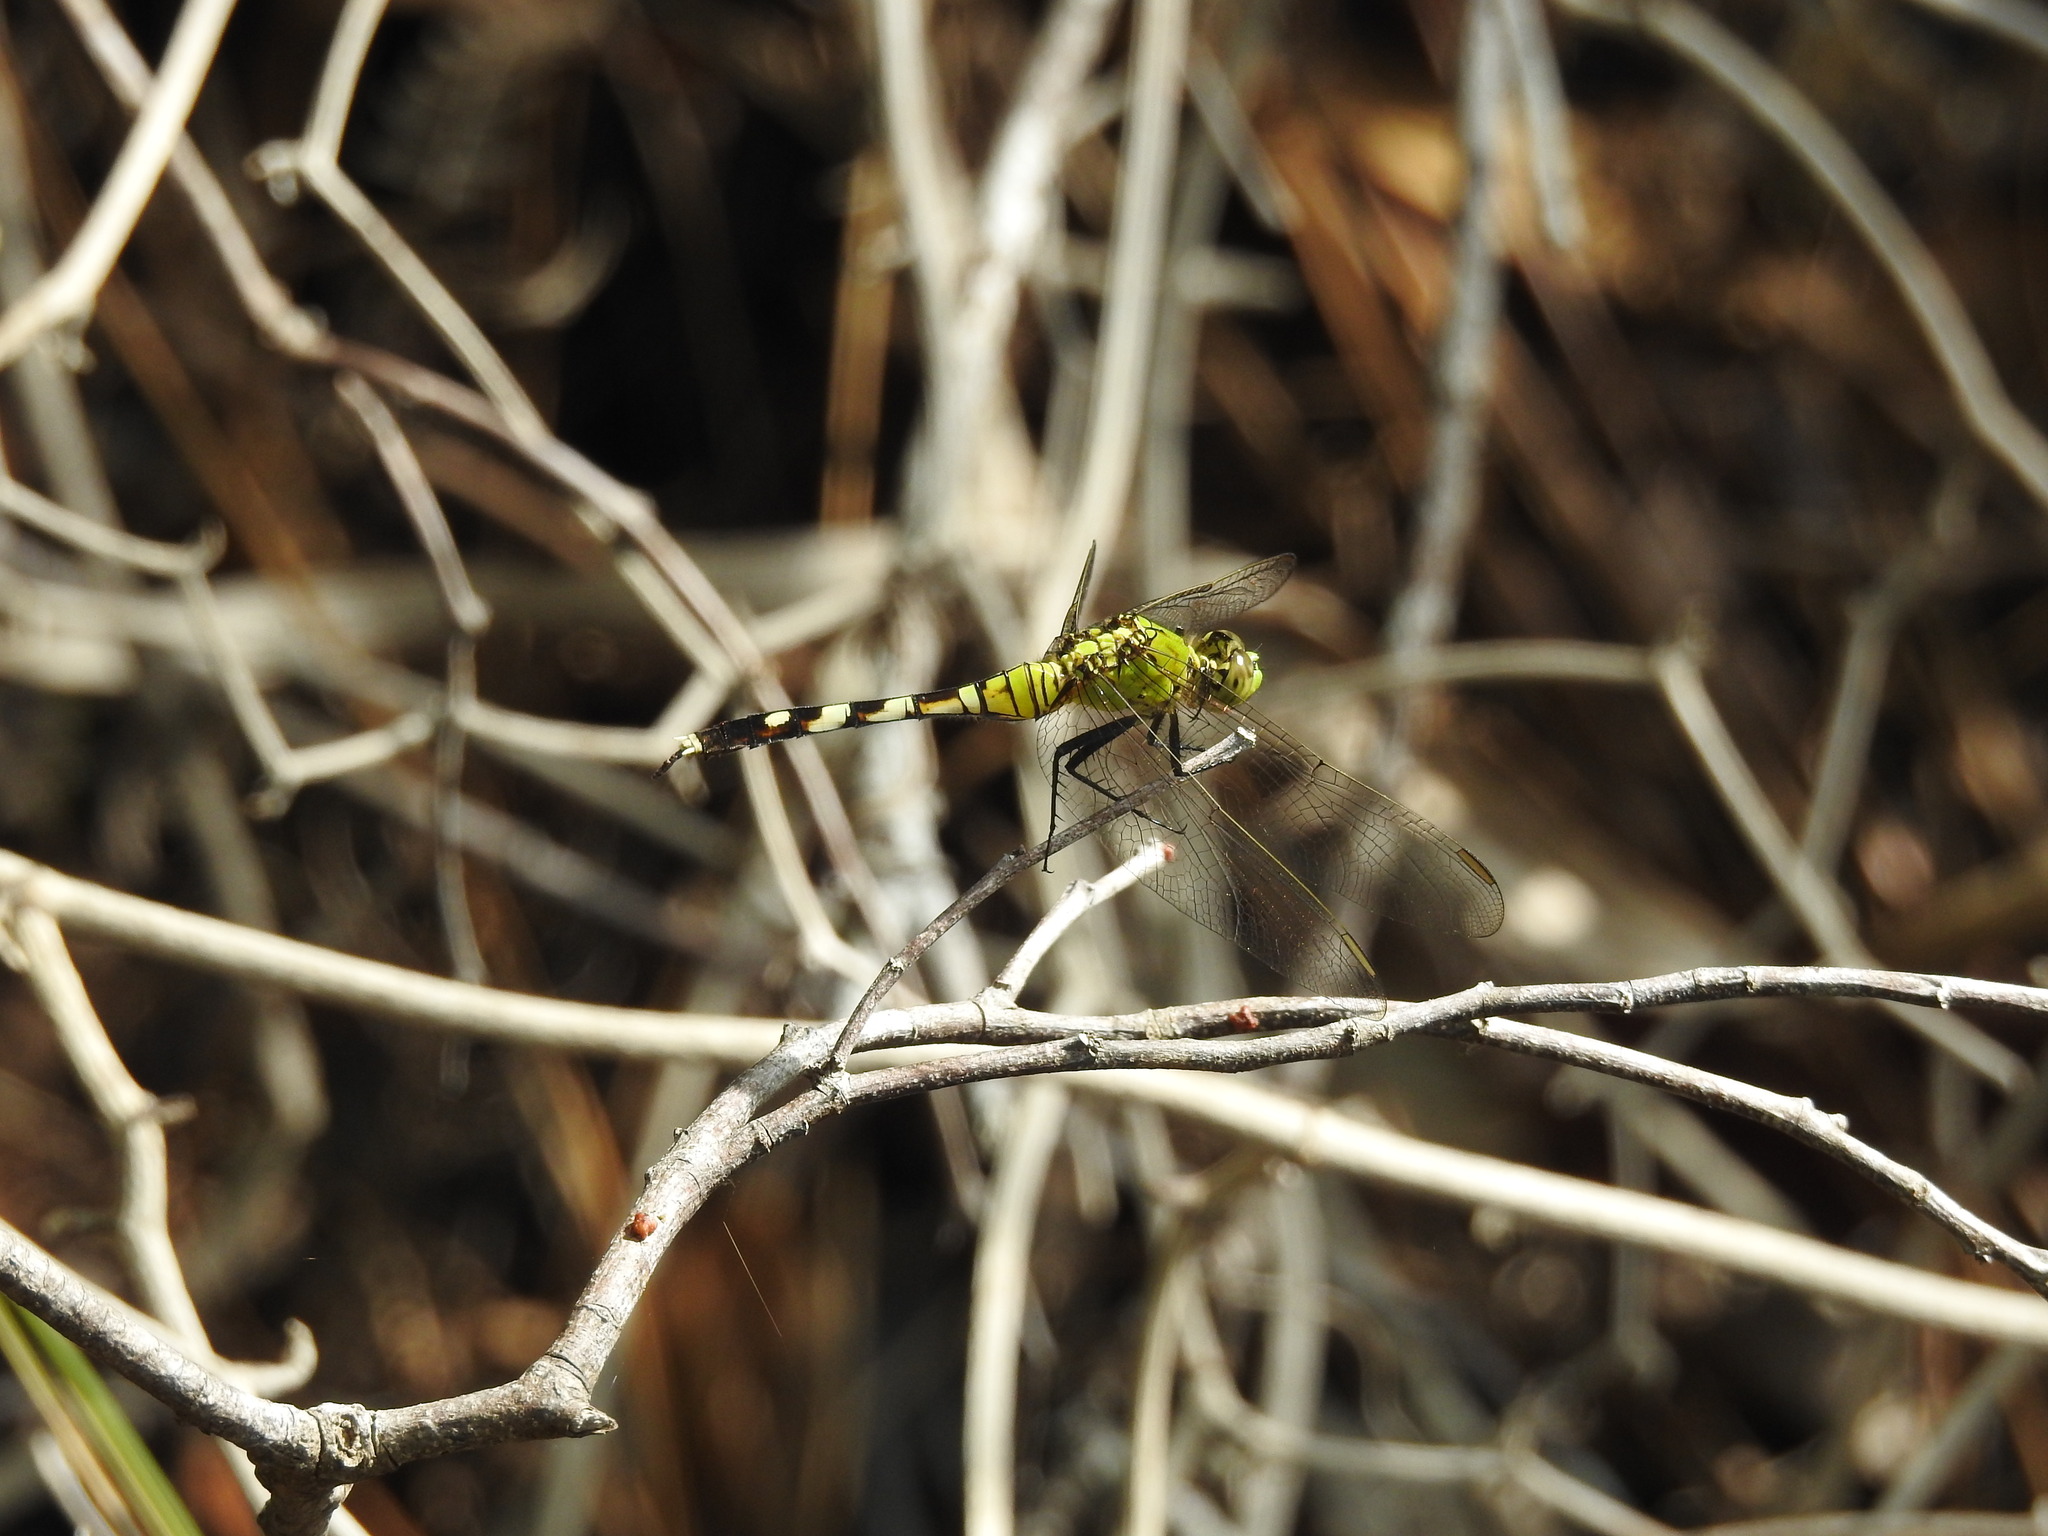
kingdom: Animalia
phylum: Arthropoda
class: Insecta
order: Odonata
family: Libellulidae
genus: Erythemis
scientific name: Erythemis simplicicollis
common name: Eastern pondhawk
